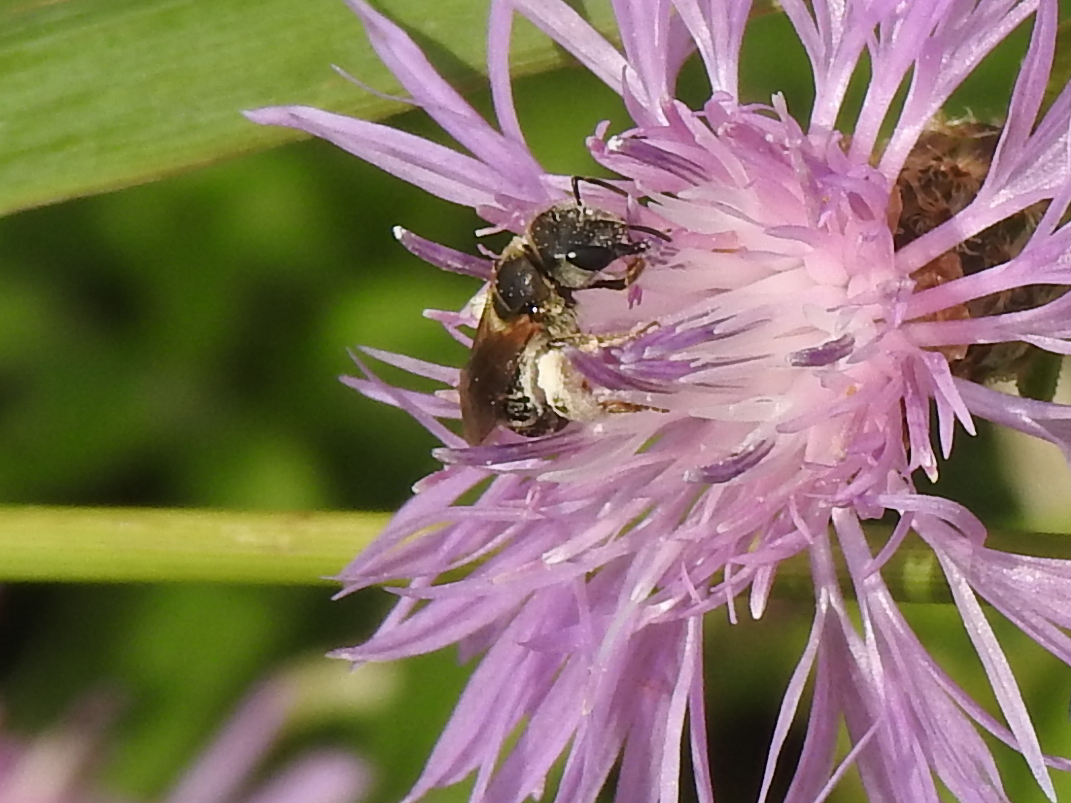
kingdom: Animalia
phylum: Arthropoda
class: Insecta
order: Hymenoptera
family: Halictidae
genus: Halictus
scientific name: Halictus ligatus
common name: Ligated furrow bee
